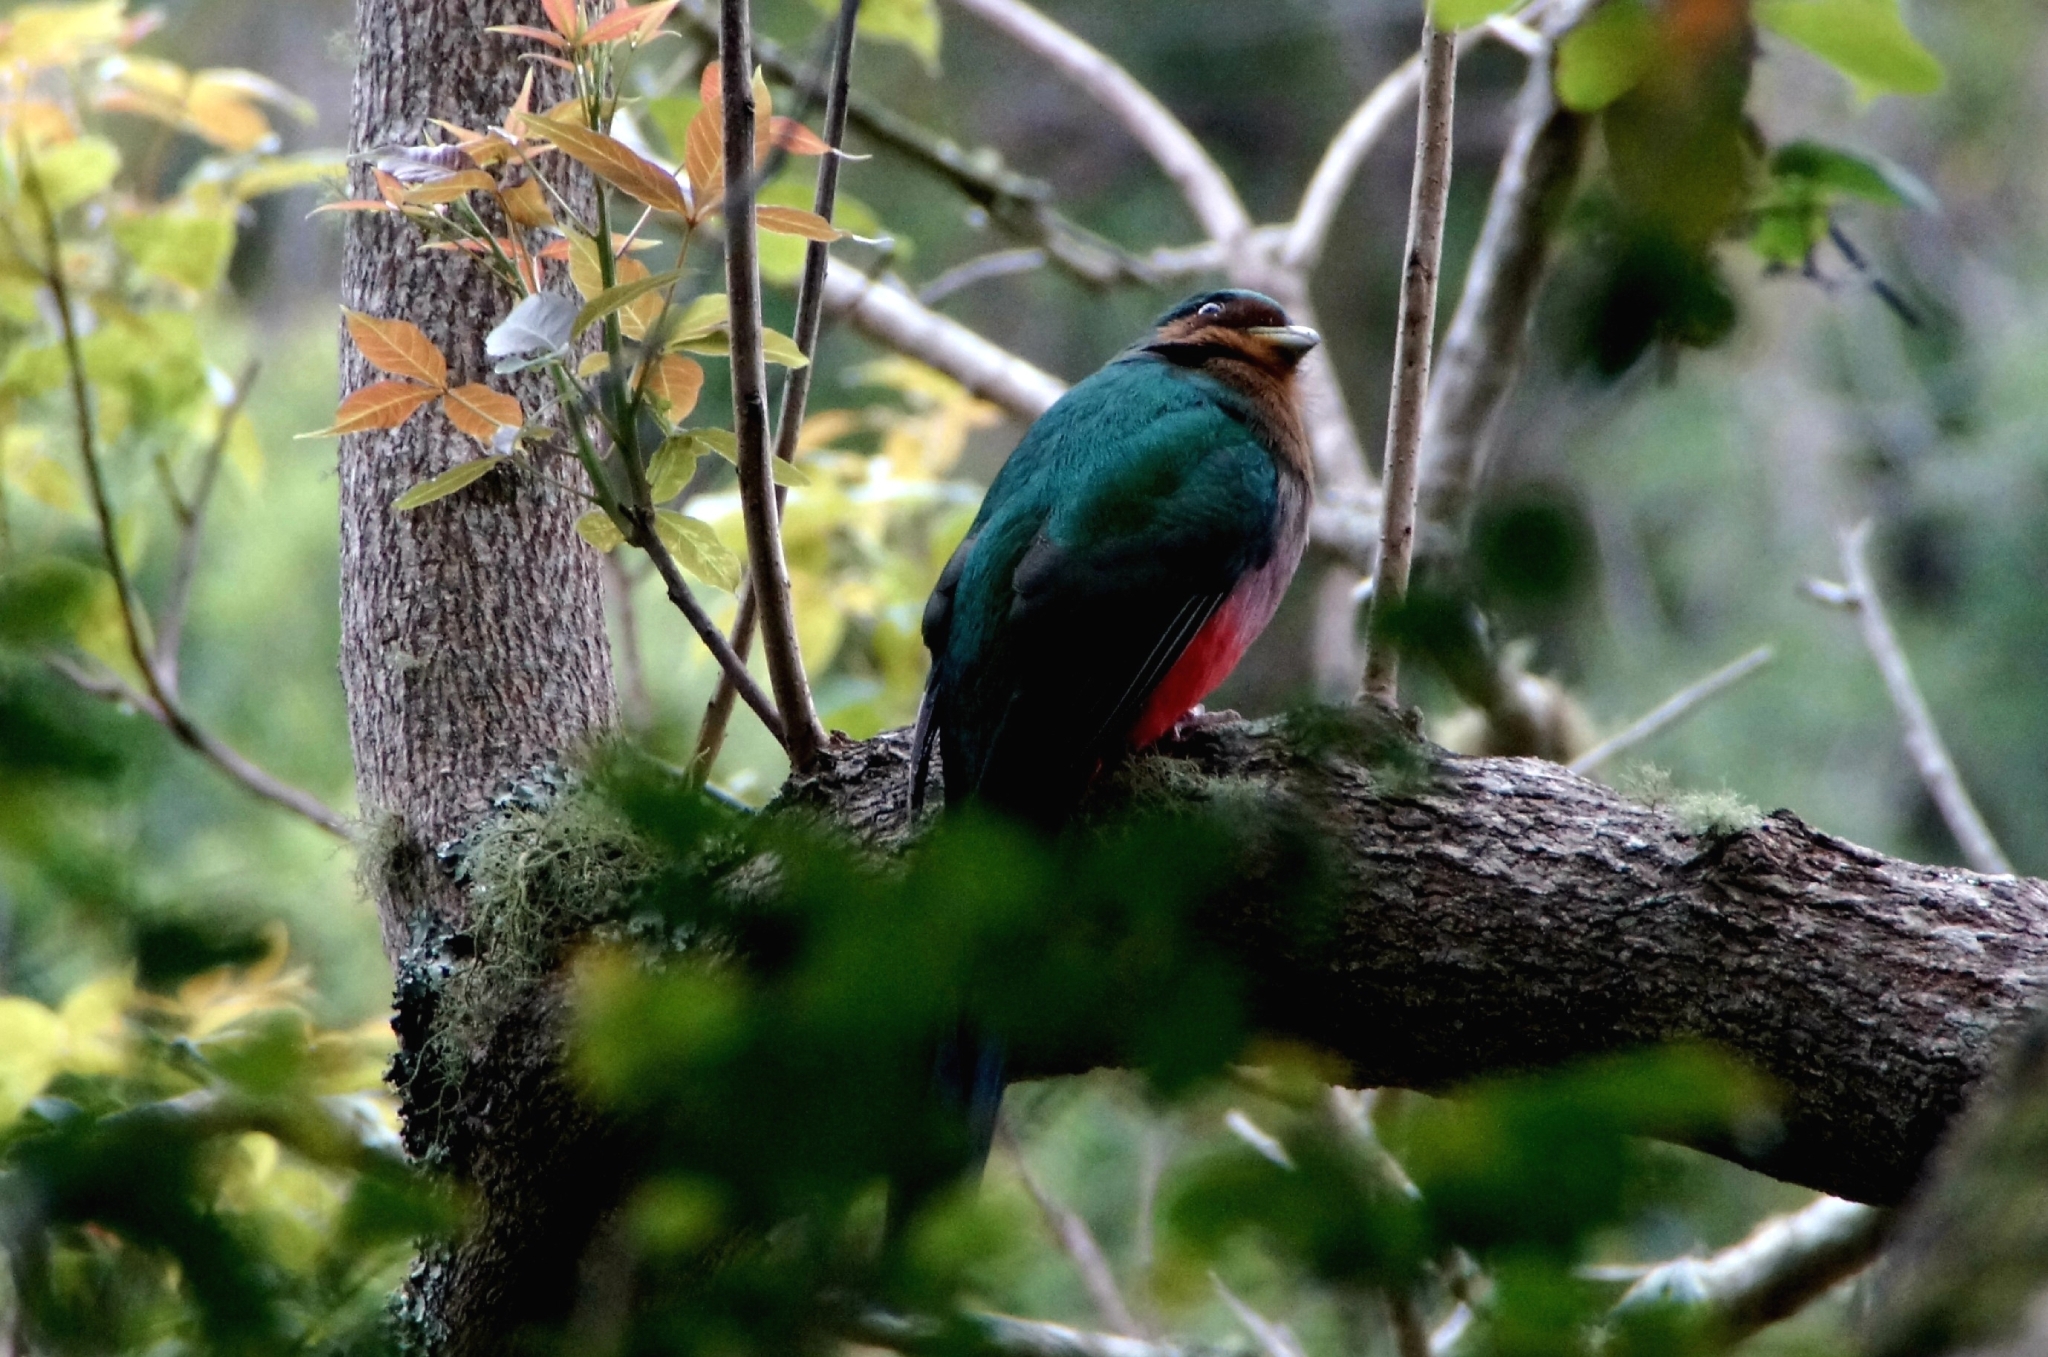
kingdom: Animalia
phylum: Chordata
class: Aves
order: Trogoniformes
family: Trogonidae
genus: Apaloderma
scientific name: Apaloderma narina
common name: Narina trogon
